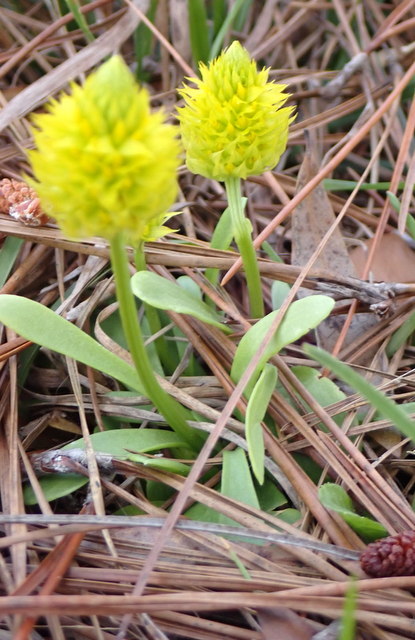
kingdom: Plantae
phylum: Tracheophyta
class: Magnoliopsida
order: Fabales
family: Polygalaceae
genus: Polygala
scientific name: Polygala nana
